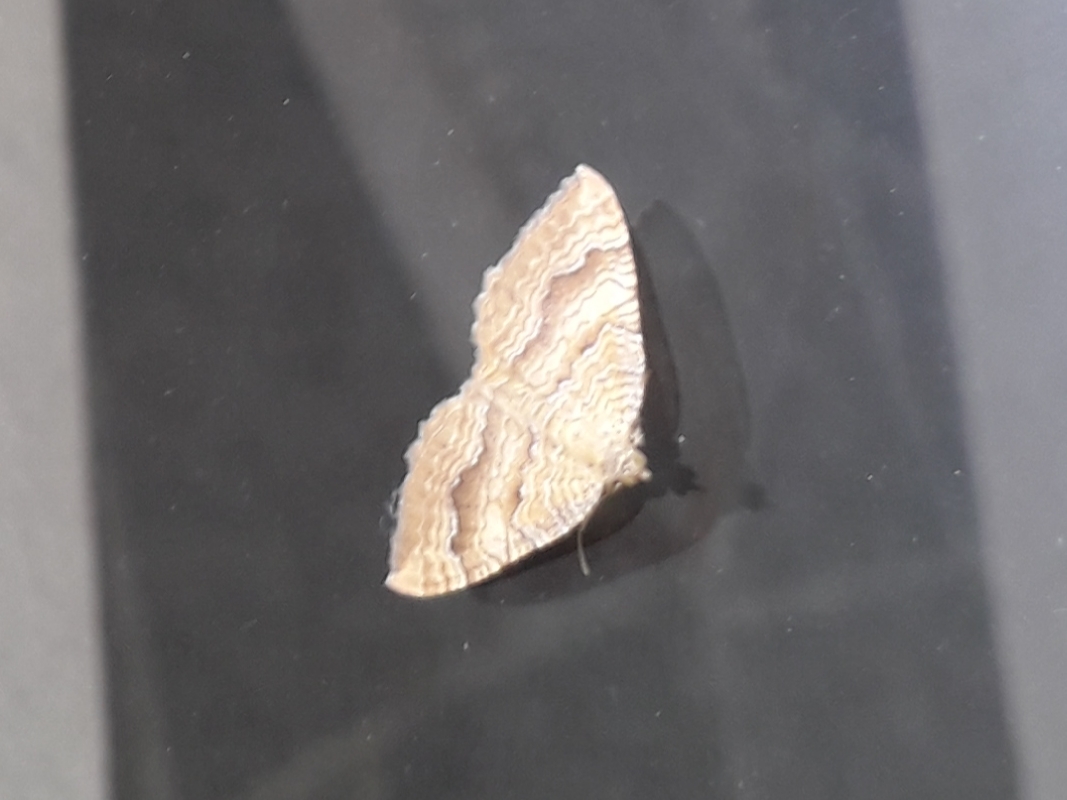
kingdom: Animalia
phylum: Arthropoda
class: Insecta
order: Lepidoptera
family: Geometridae
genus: Camptogramma
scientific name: Camptogramma bilineata
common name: Yellow shell
